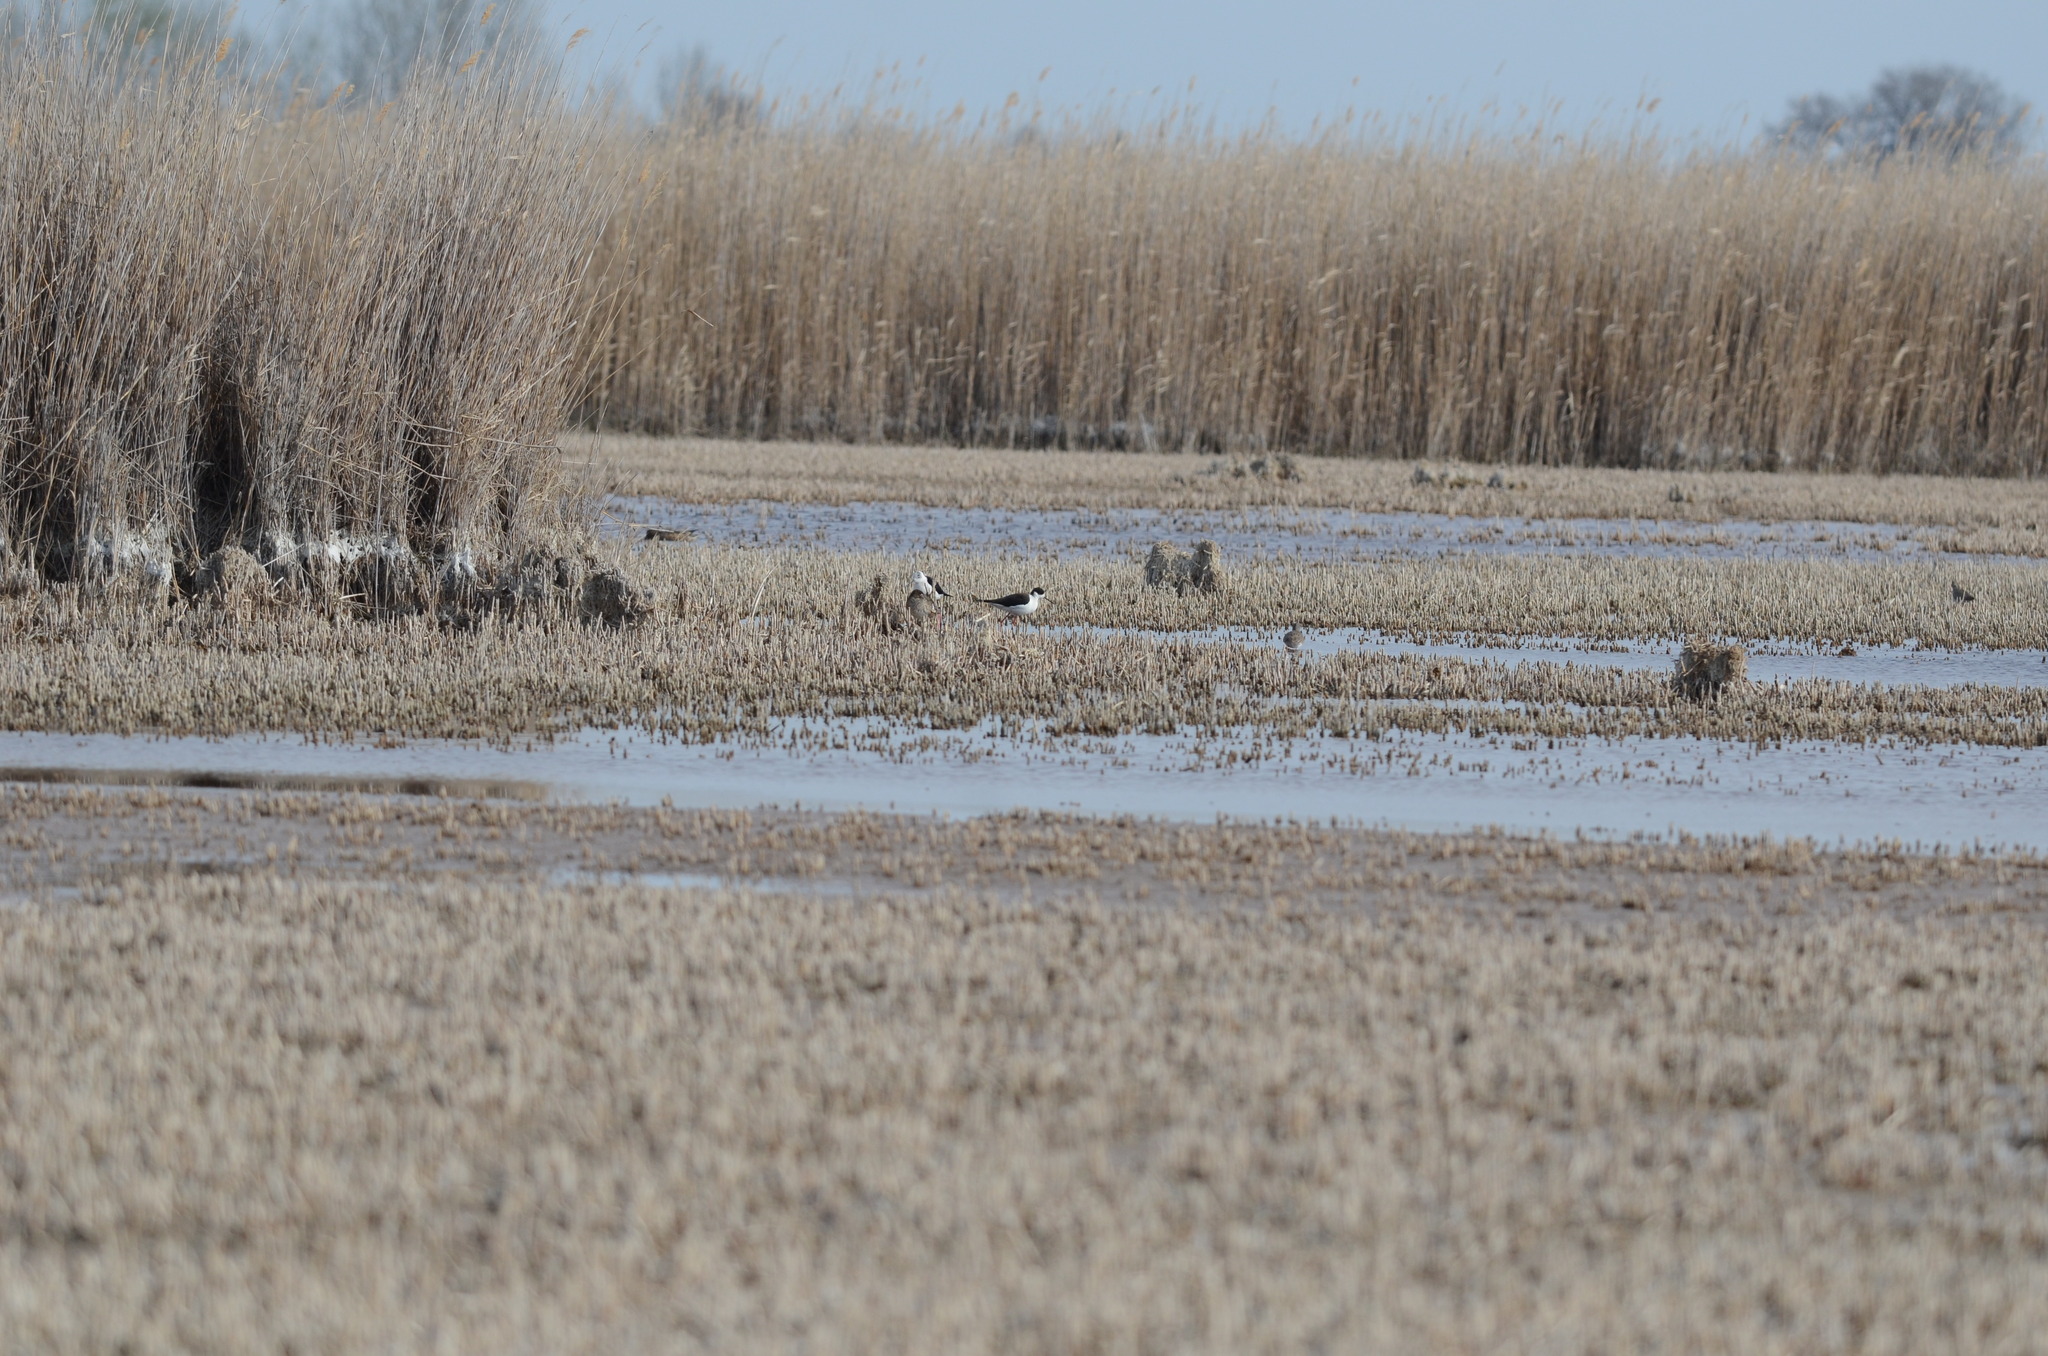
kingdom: Animalia
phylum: Chordata
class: Aves
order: Charadriiformes
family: Recurvirostridae
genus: Himantopus
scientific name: Himantopus himantopus
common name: Black-winged stilt
